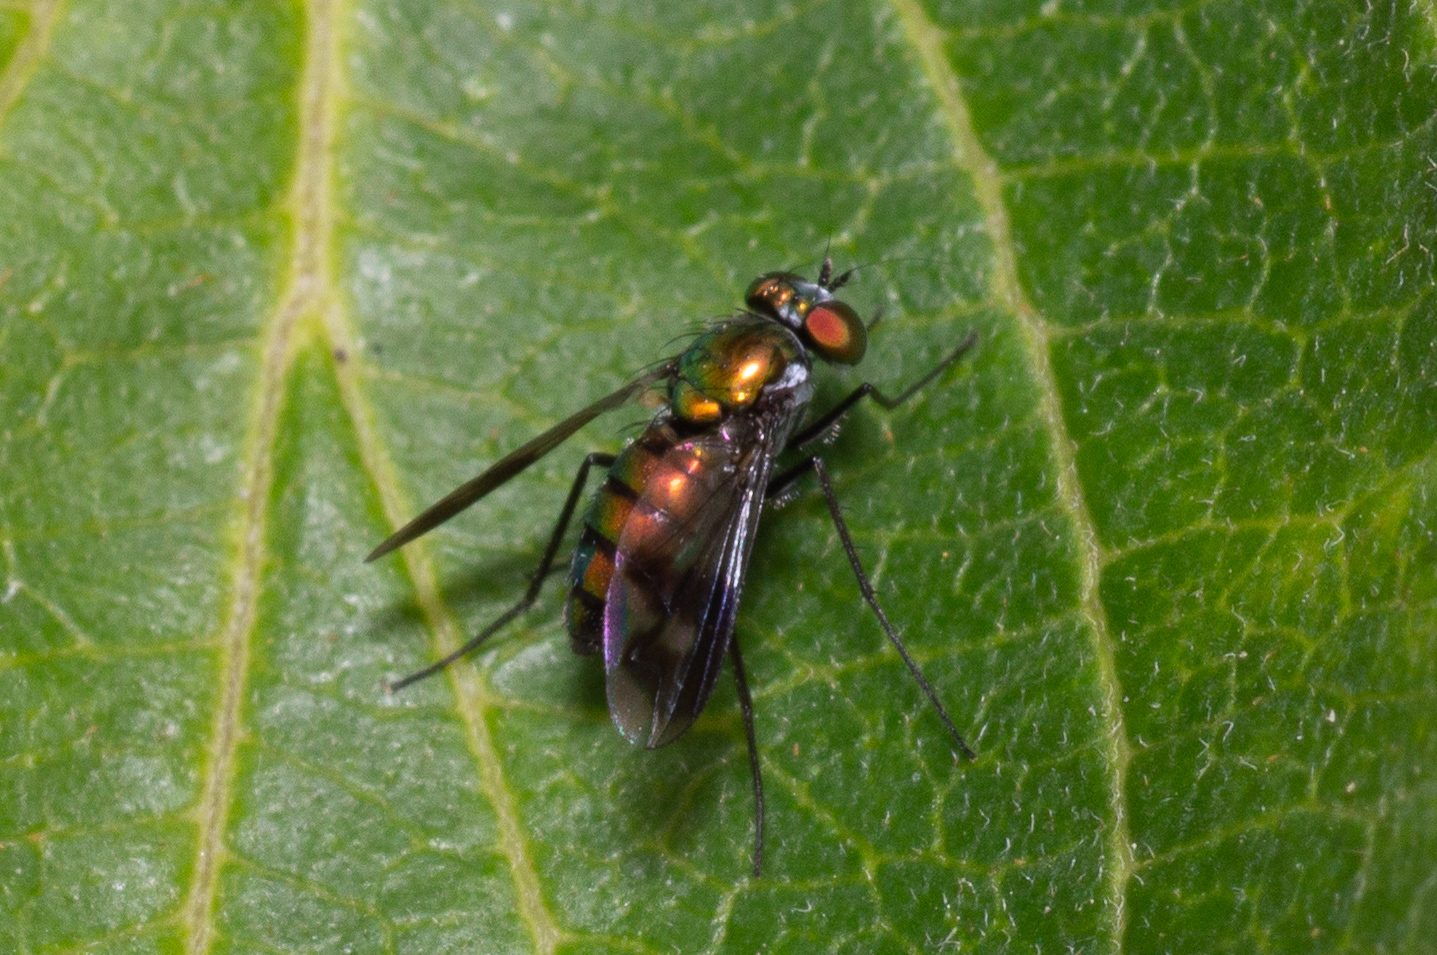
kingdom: Animalia
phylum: Arthropoda
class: Insecta
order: Diptera
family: Dolichopodidae
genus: Condylostylus
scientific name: Condylostylus patibulatus
